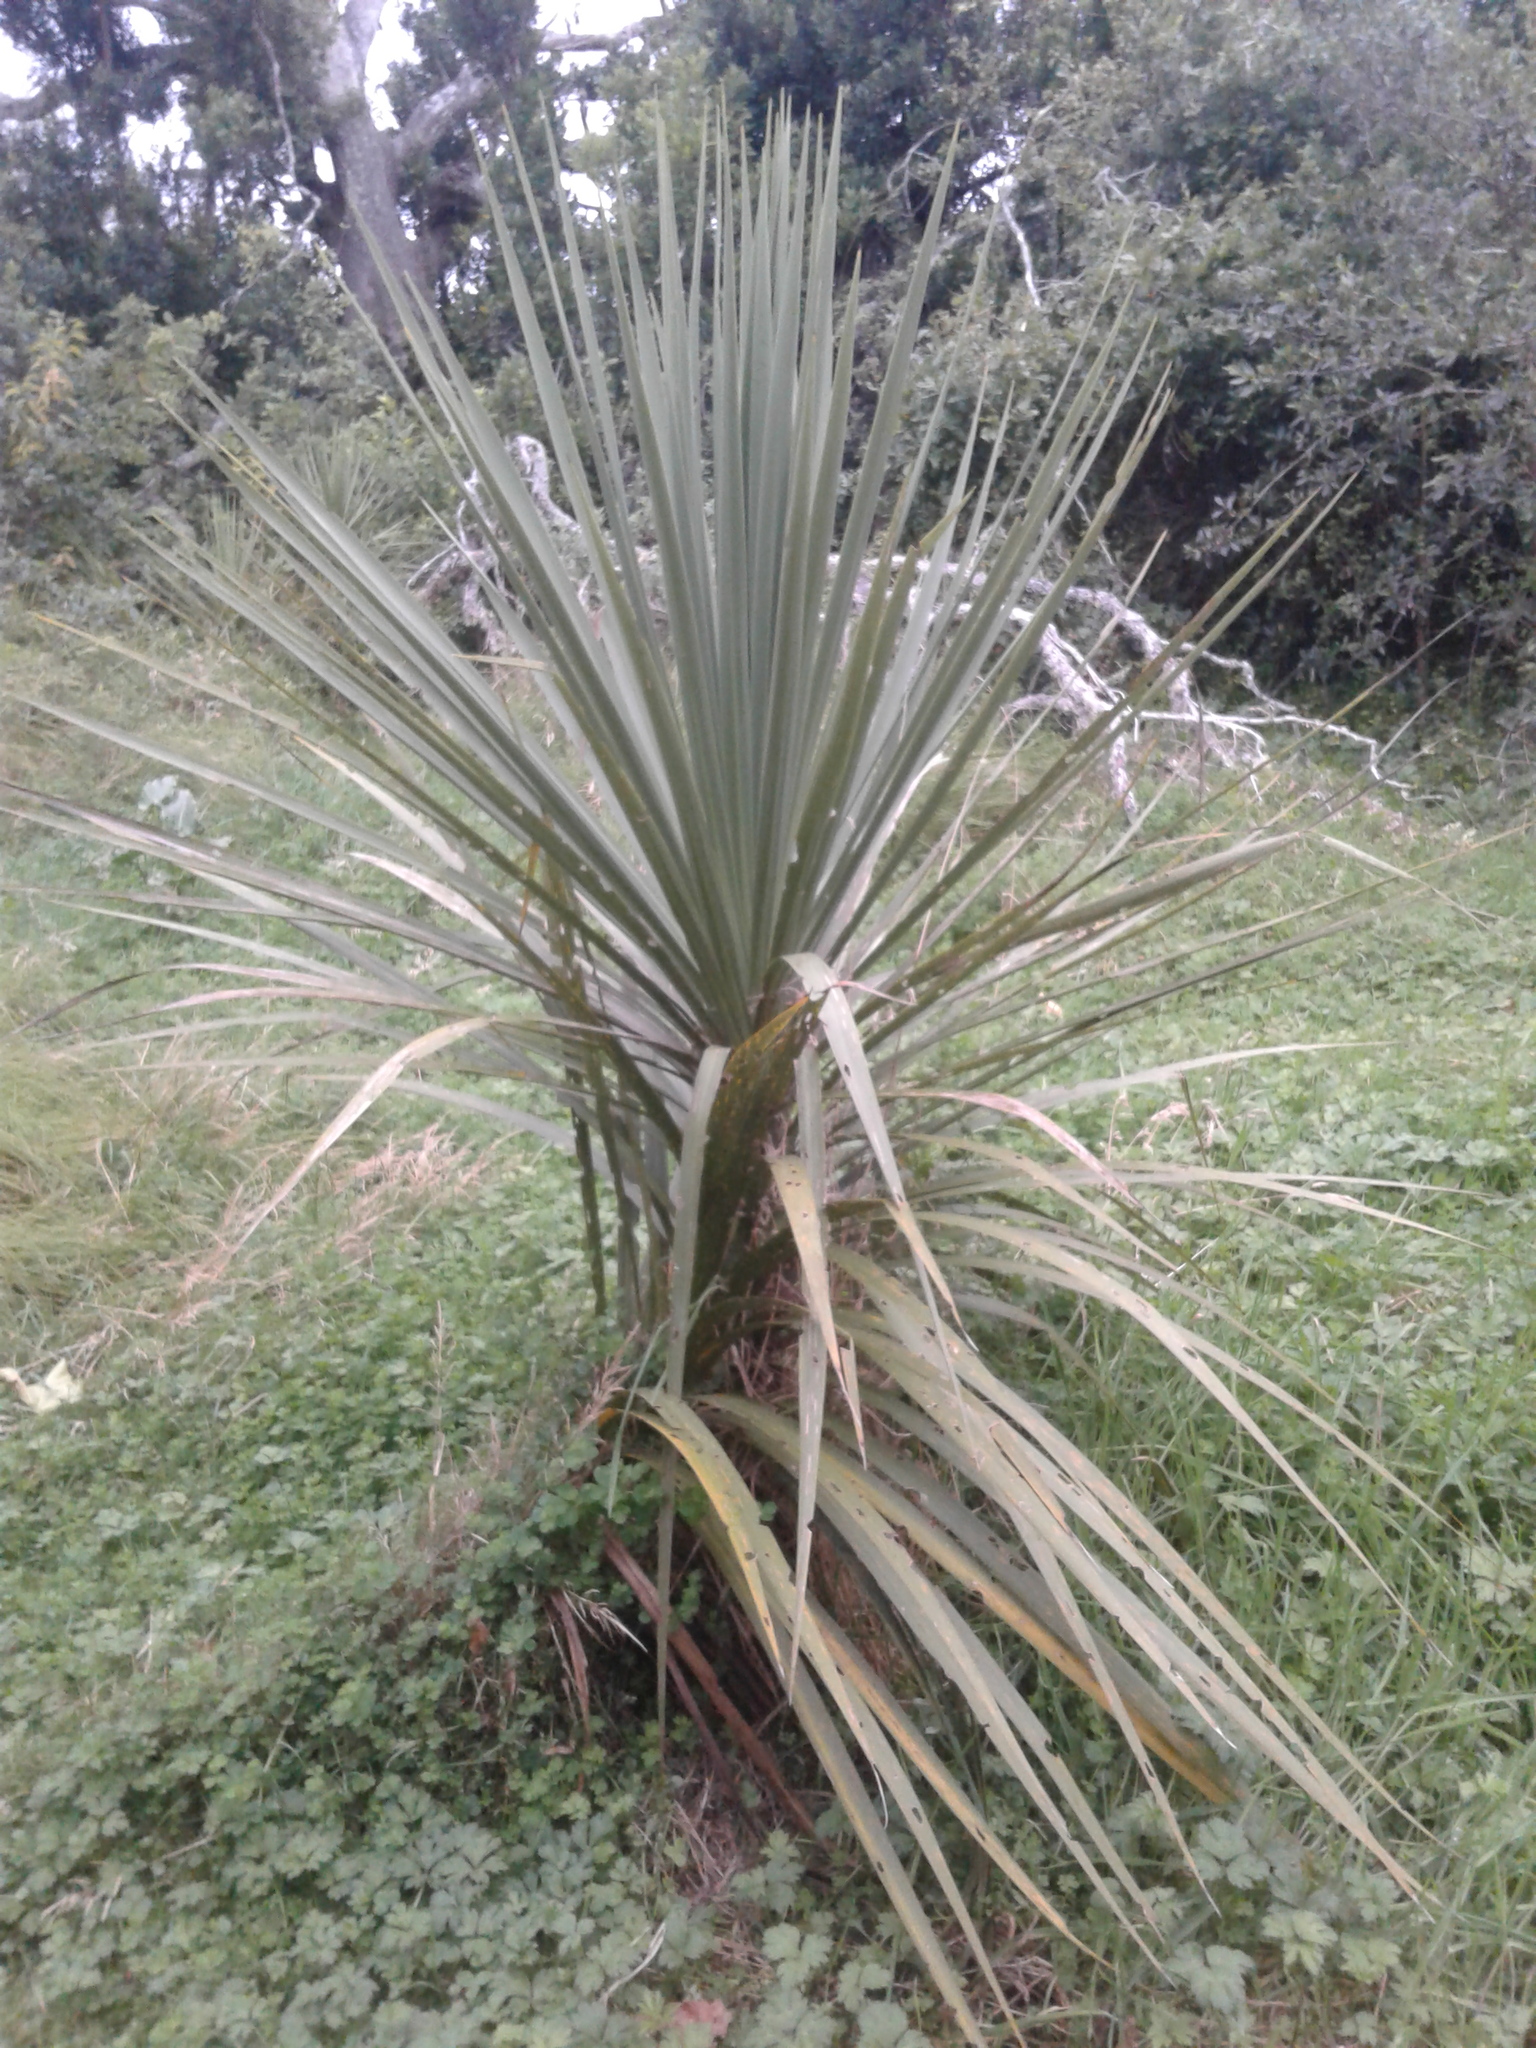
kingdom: Plantae
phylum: Tracheophyta
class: Liliopsida
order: Asparagales
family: Asparagaceae
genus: Cordyline
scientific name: Cordyline australis
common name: Cabbage-palm
